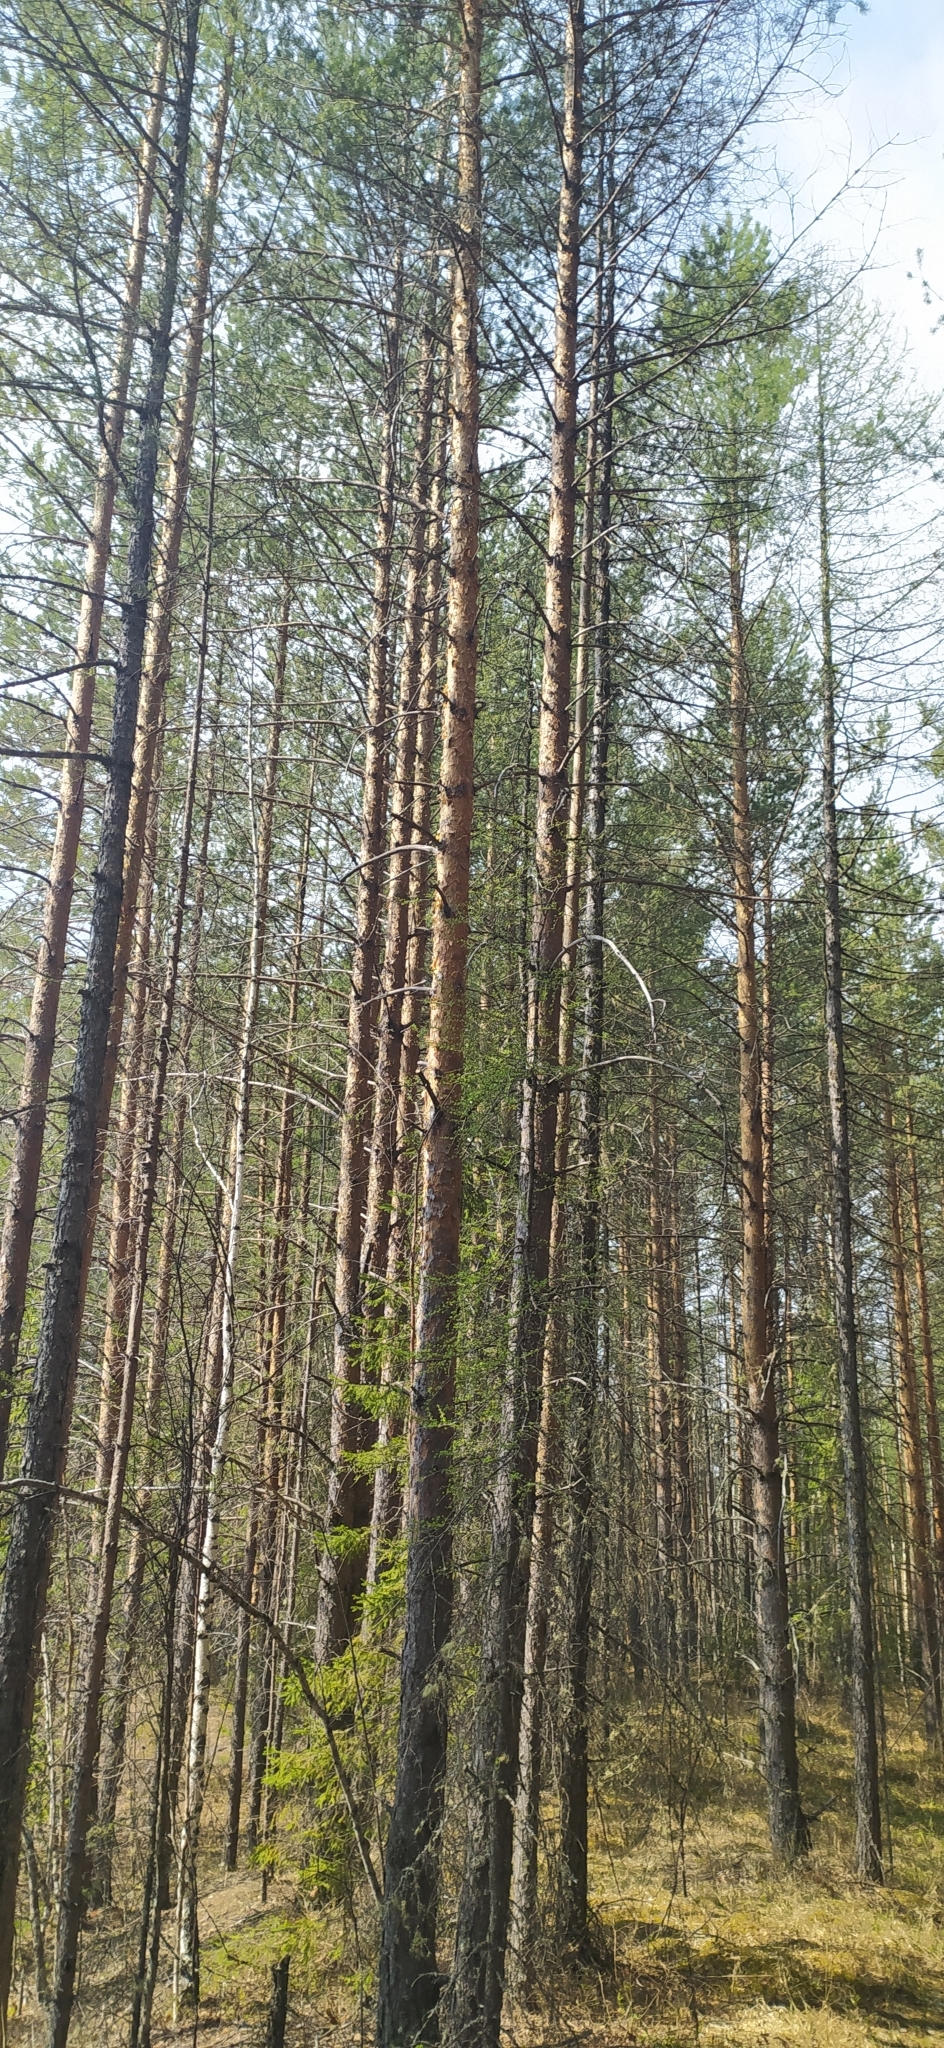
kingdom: Plantae
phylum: Tracheophyta
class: Pinopsida
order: Pinales
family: Pinaceae
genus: Pinus
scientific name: Pinus sylvestris
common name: Scots pine
